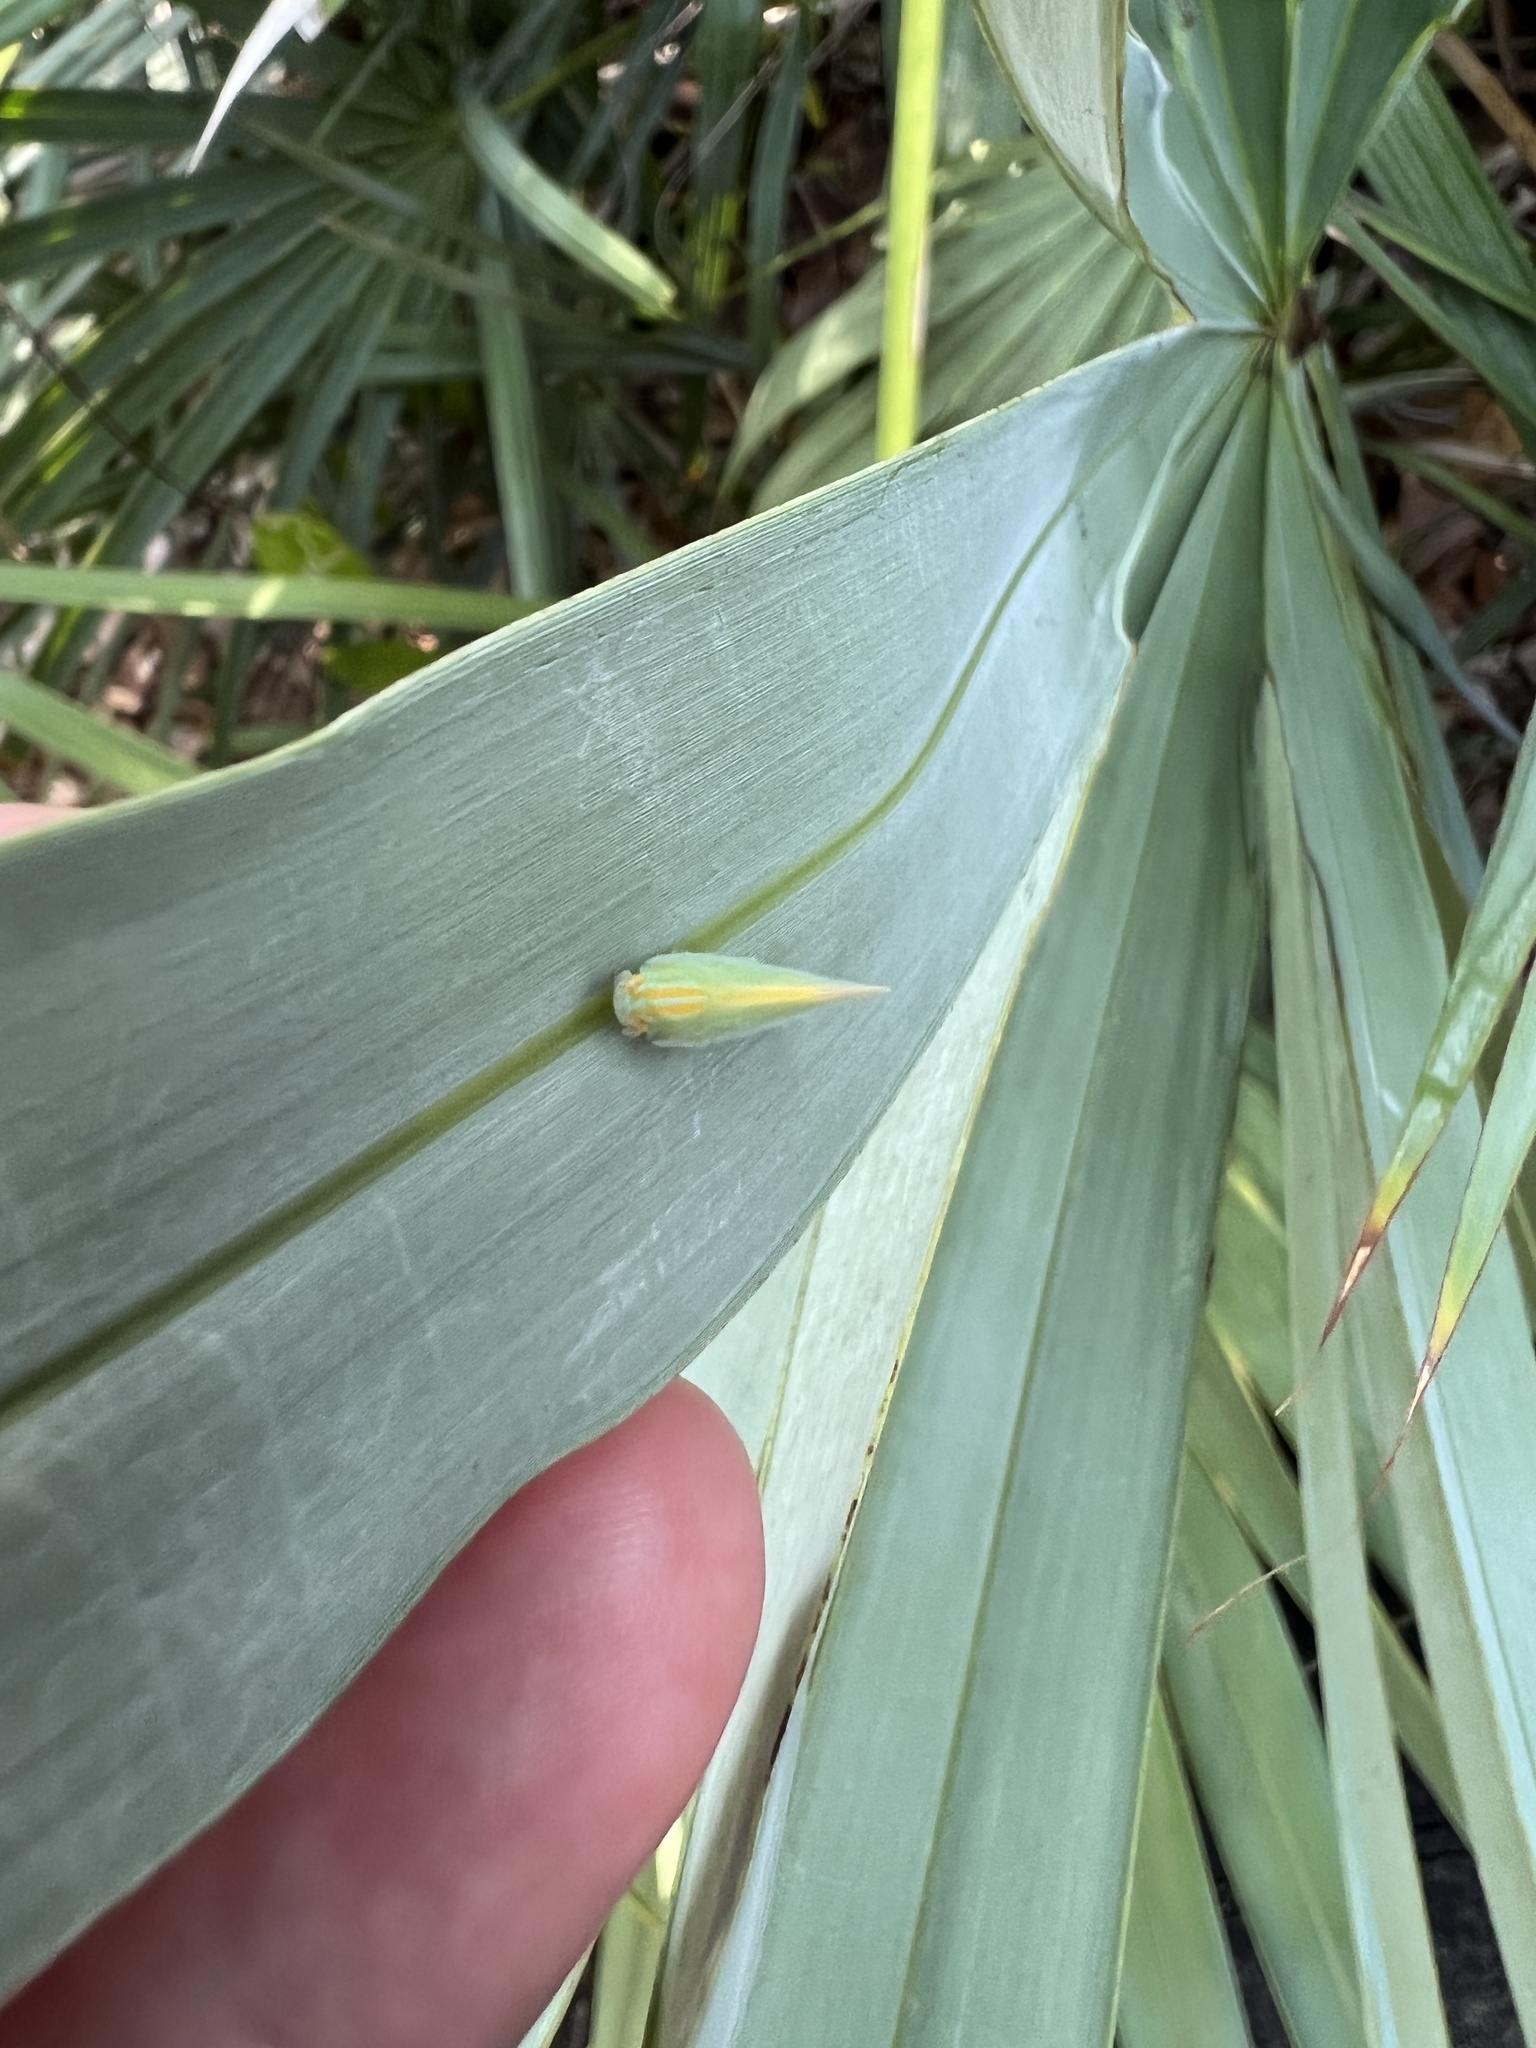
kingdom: Animalia
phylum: Arthropoda
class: Insecta
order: Hemiptera
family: Flatidae
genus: Ormenaria
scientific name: Ormenaria rufifascia
